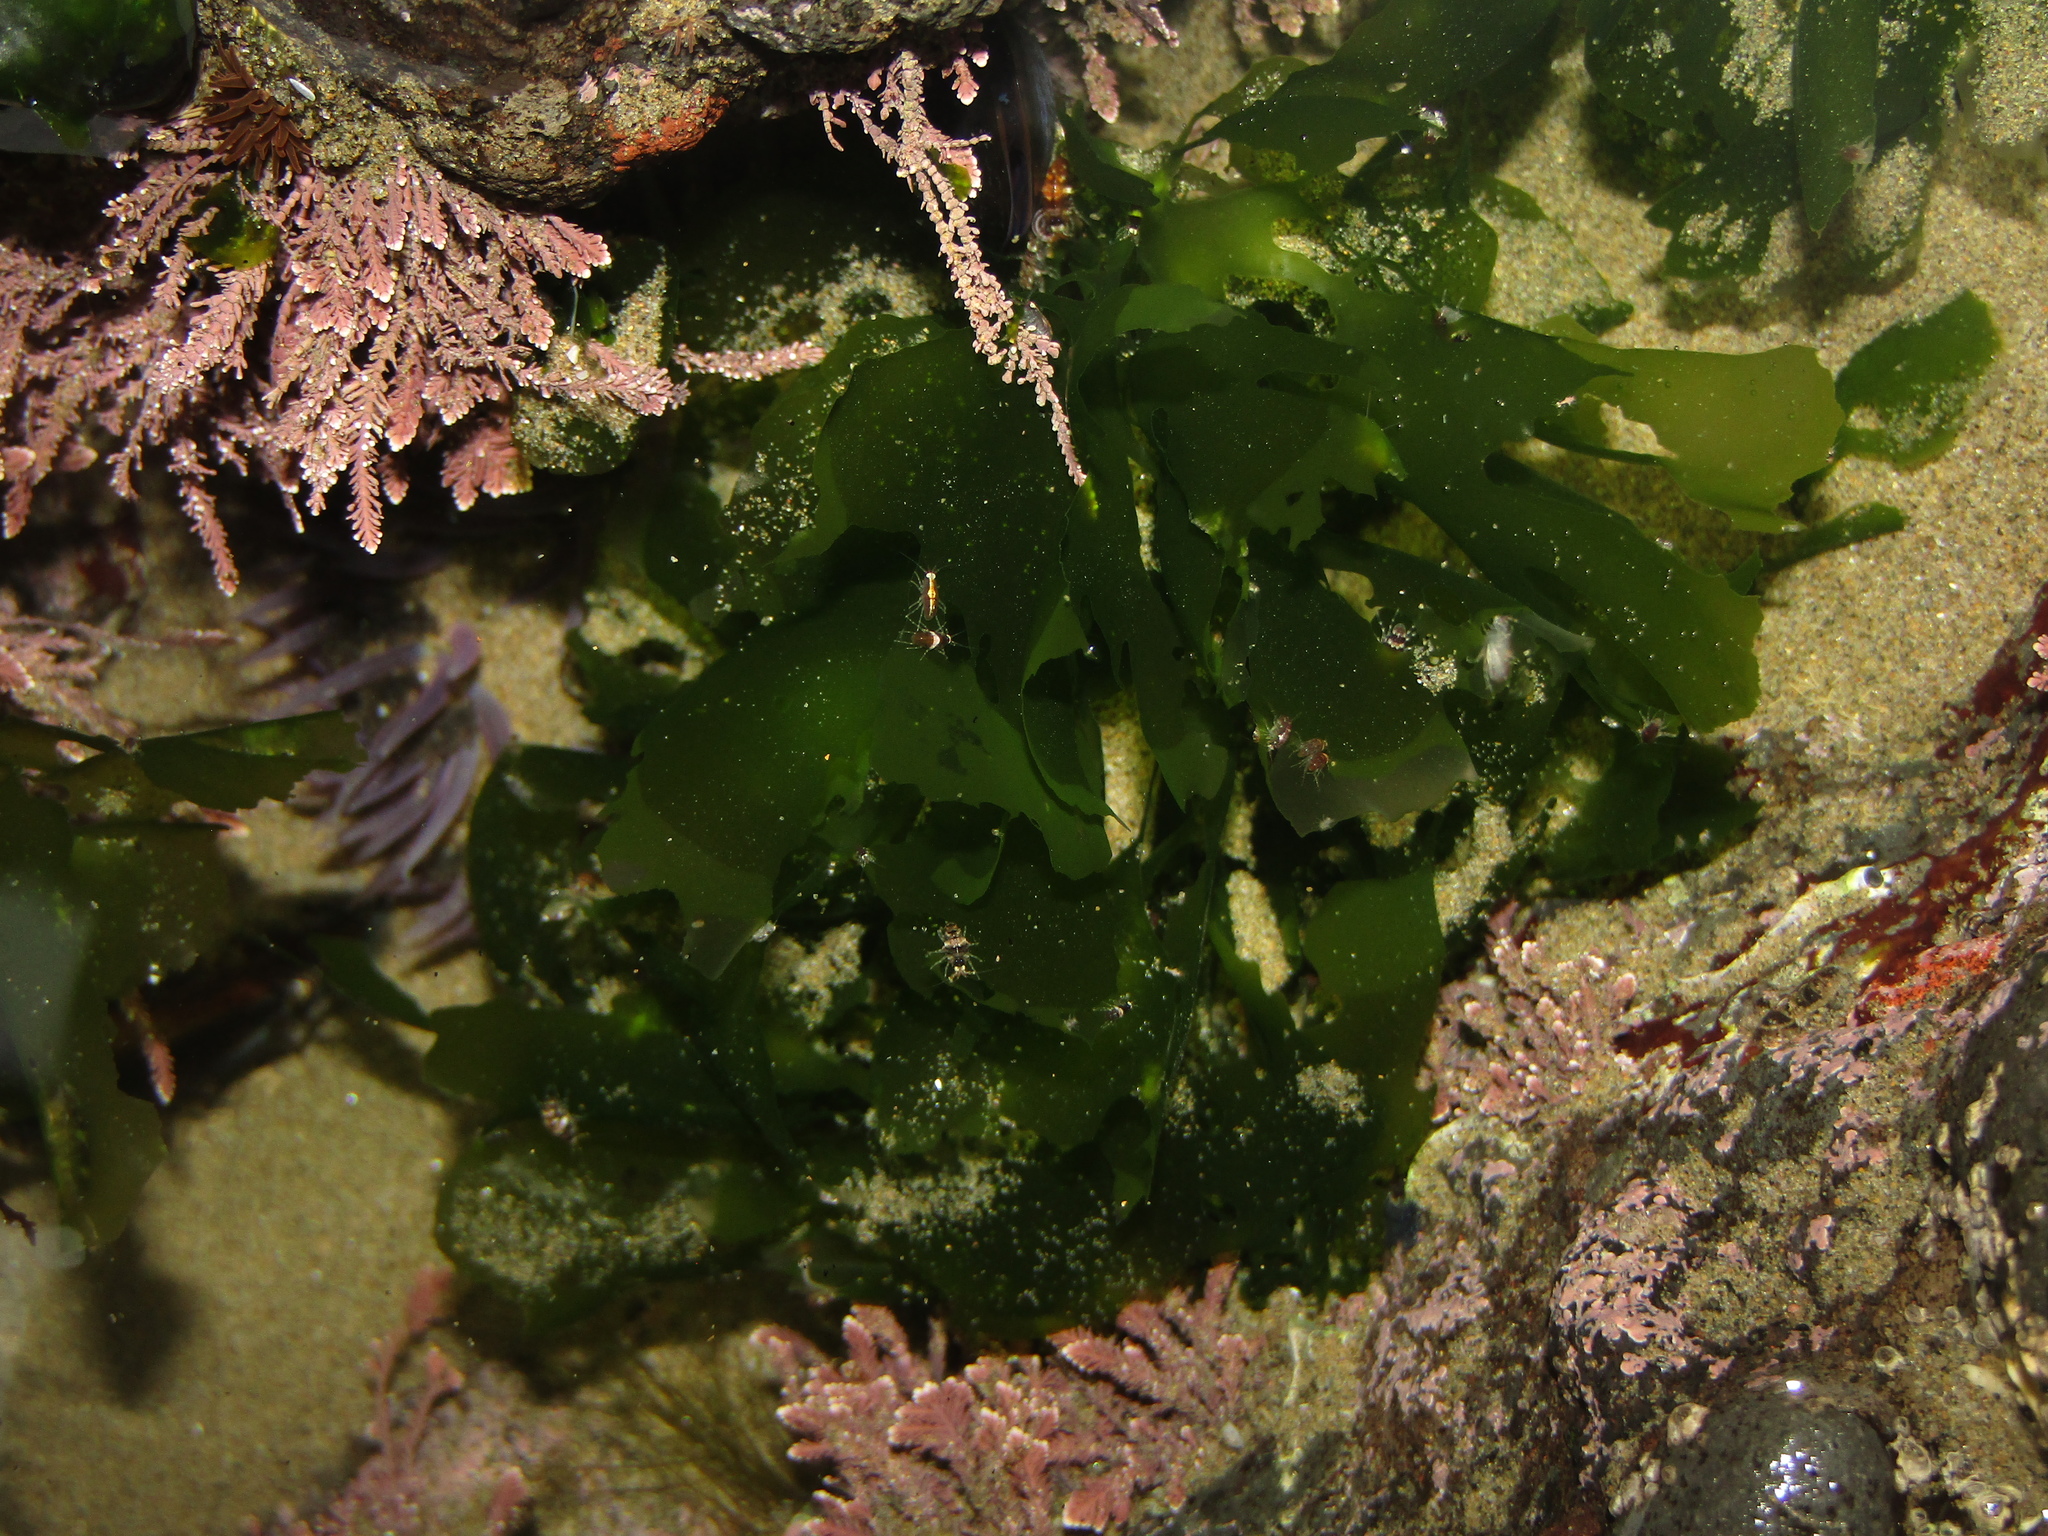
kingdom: Plantae
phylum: Chlorophyta
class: Ulvophyceae
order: Ulvales
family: Ulvaceae
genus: Ulva
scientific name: Ulva
